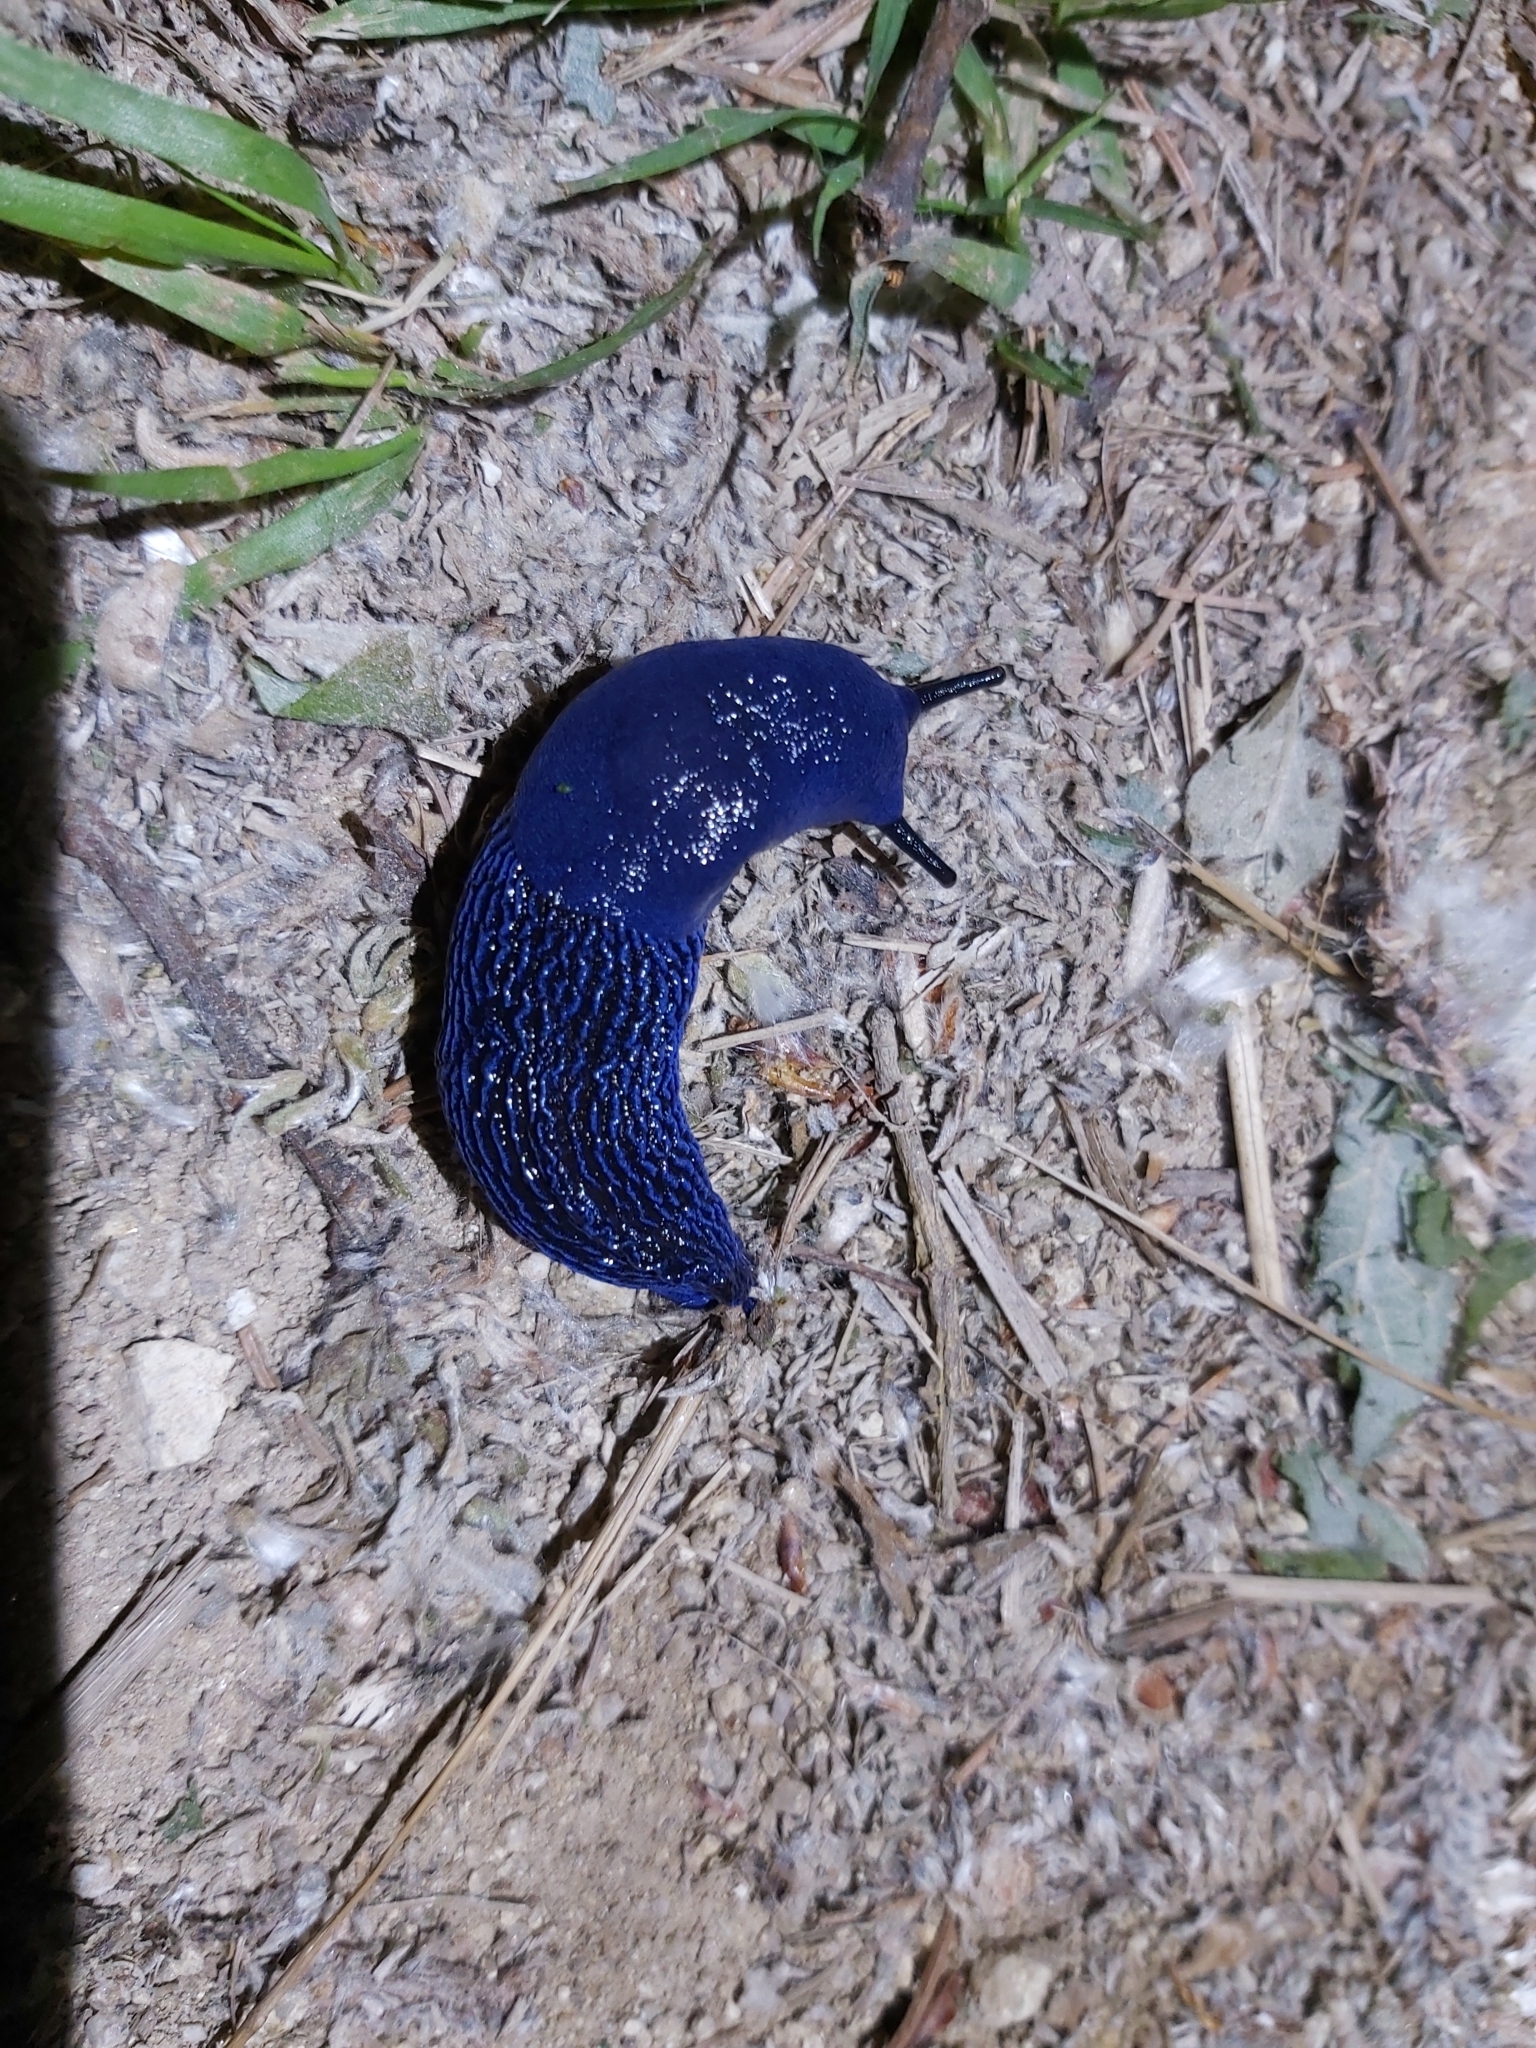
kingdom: Animalia
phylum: Mollusca
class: Gastropoda
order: Stylommatophora
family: Limacidae
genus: Bielzia
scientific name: Bielzia coerulans
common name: Carpathian blue slug
